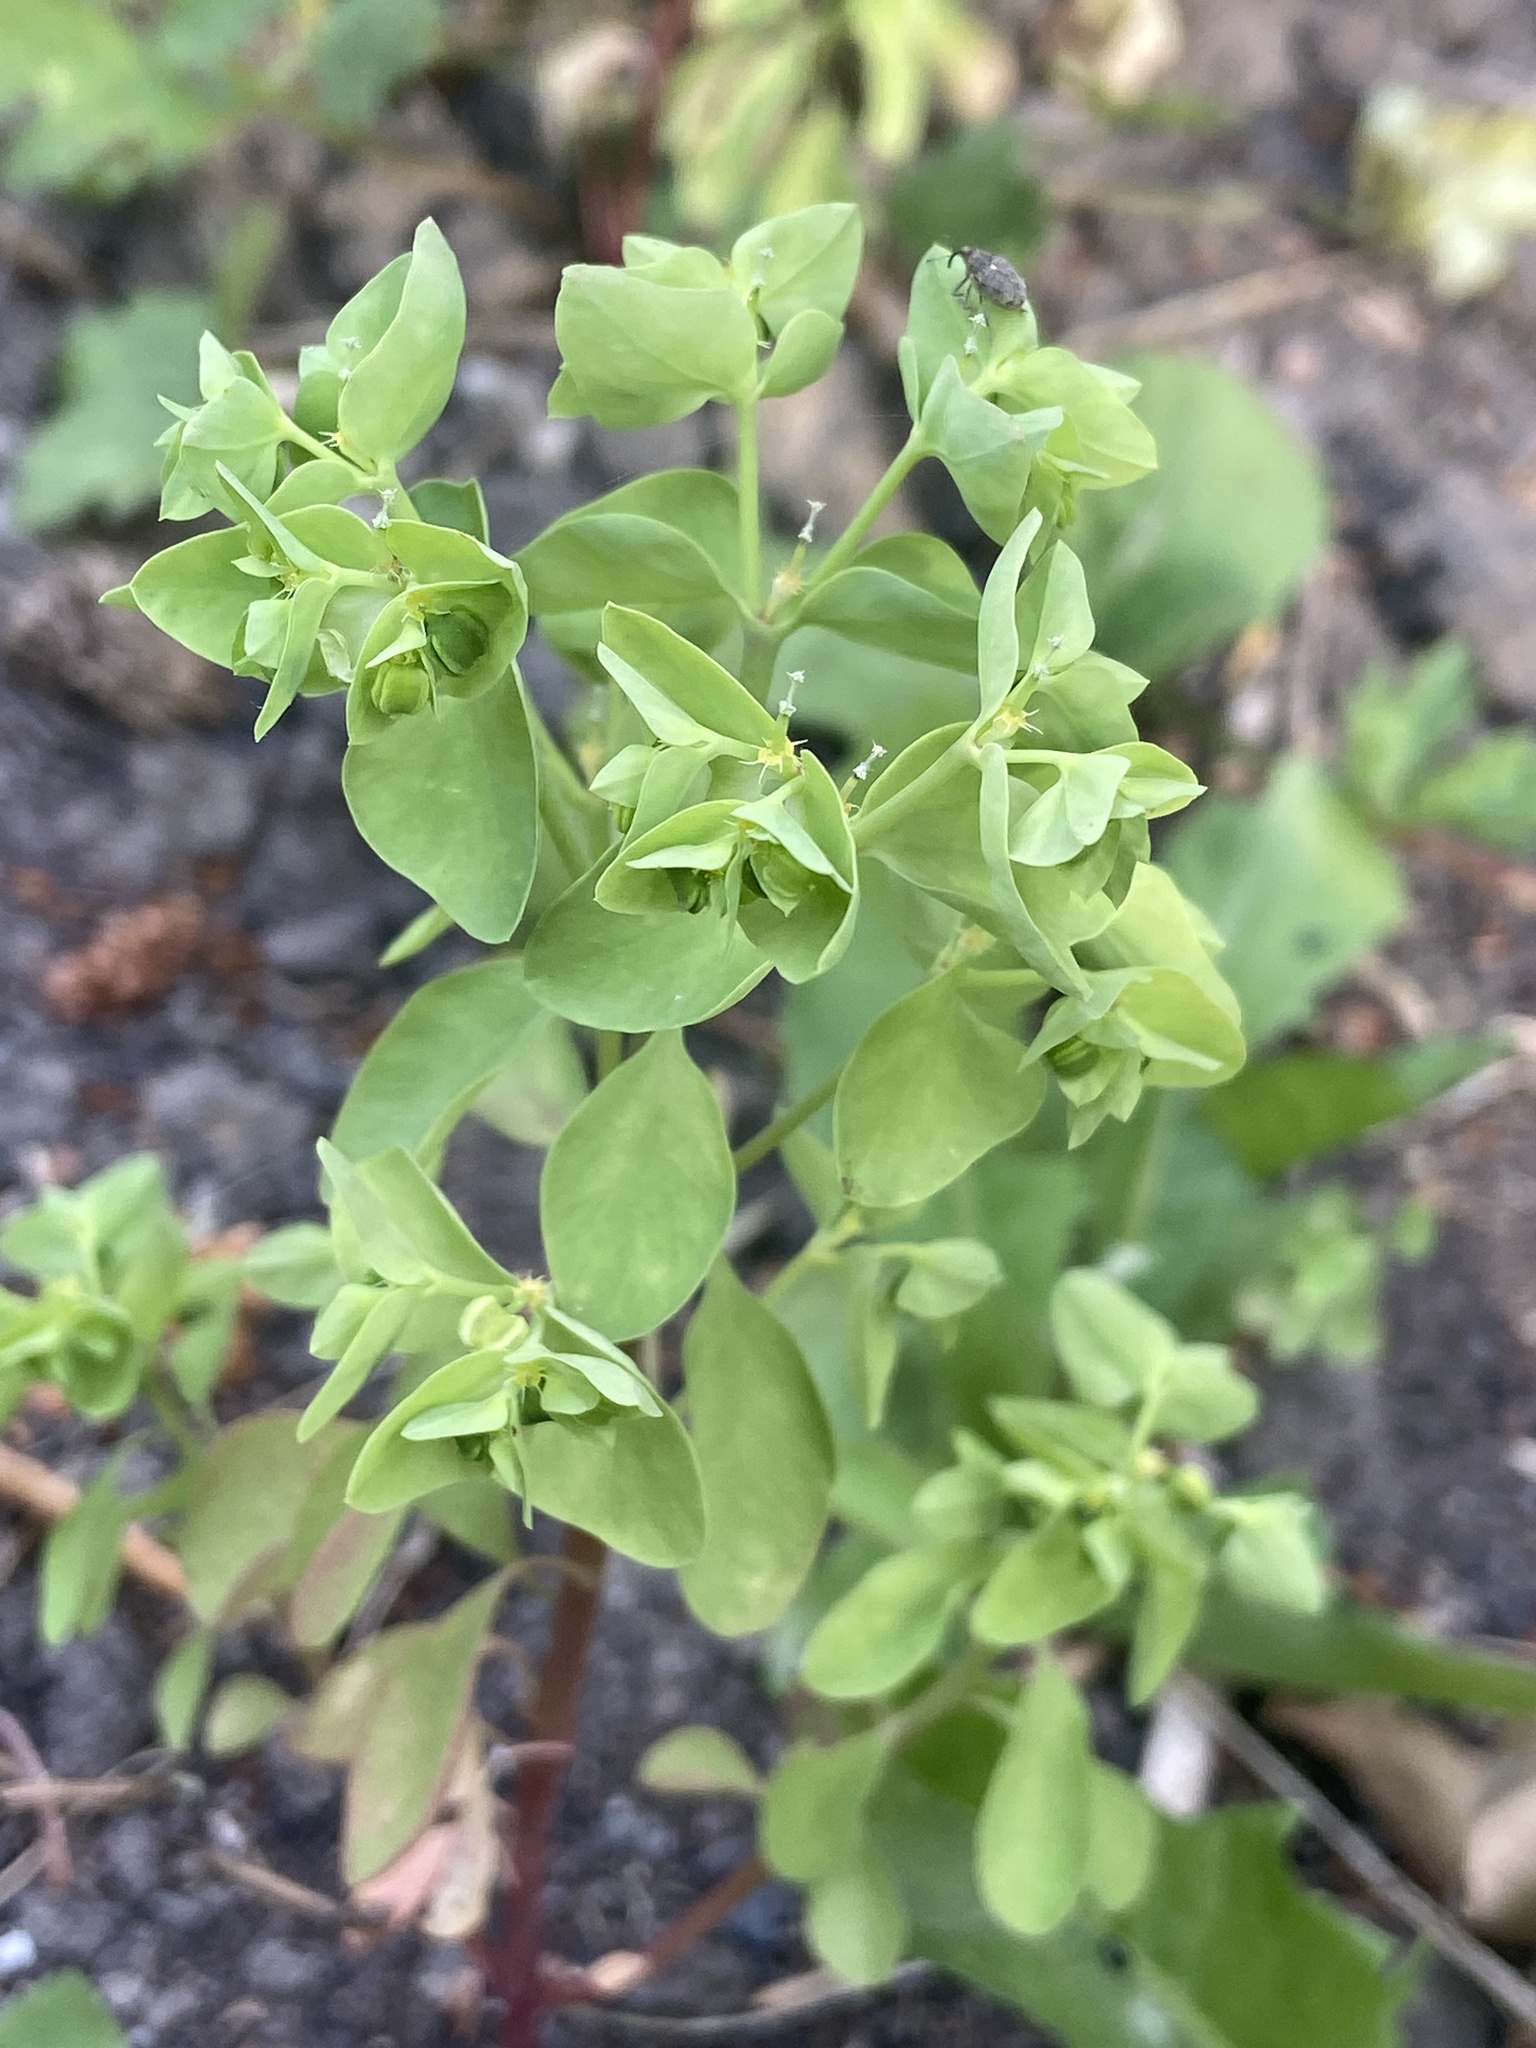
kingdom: Plantae
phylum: Tracheophyta
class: Magnoliopsida
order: Malpighiales
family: Euphorbiaceae
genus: Euphorbia
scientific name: Euphorbia peplus
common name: Petty spurge
